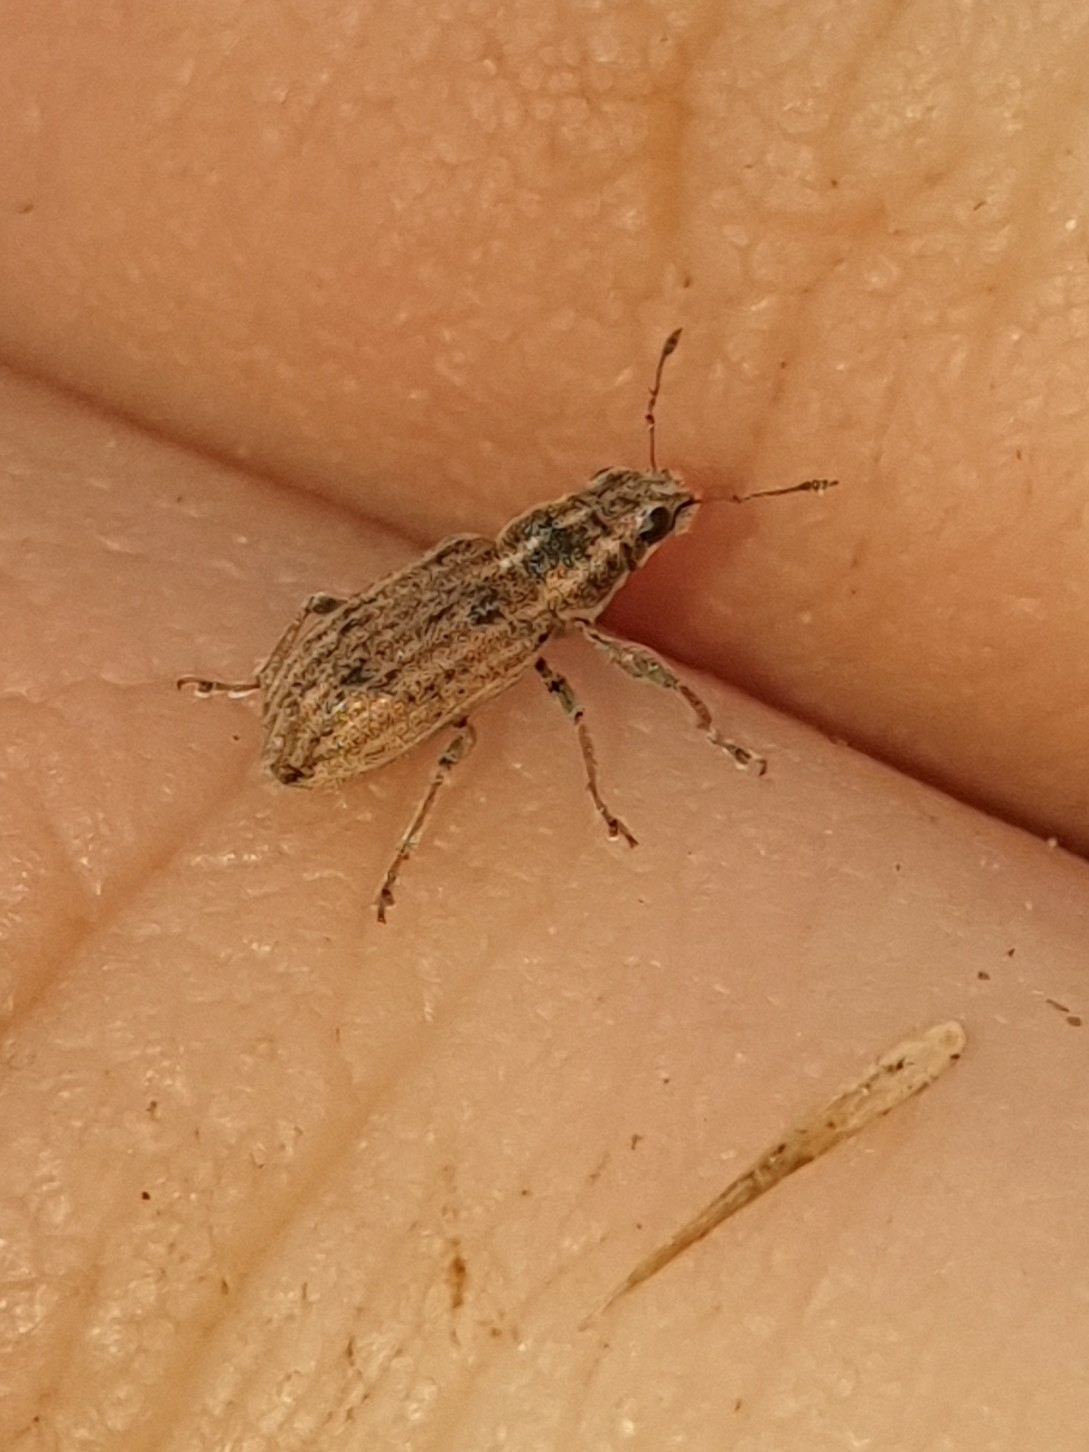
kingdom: Animalia
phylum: Arthropoda
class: Insecta
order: Coleoptera
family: Curculionidae
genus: Sitona
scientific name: Sitona lineatus
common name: Weevil
